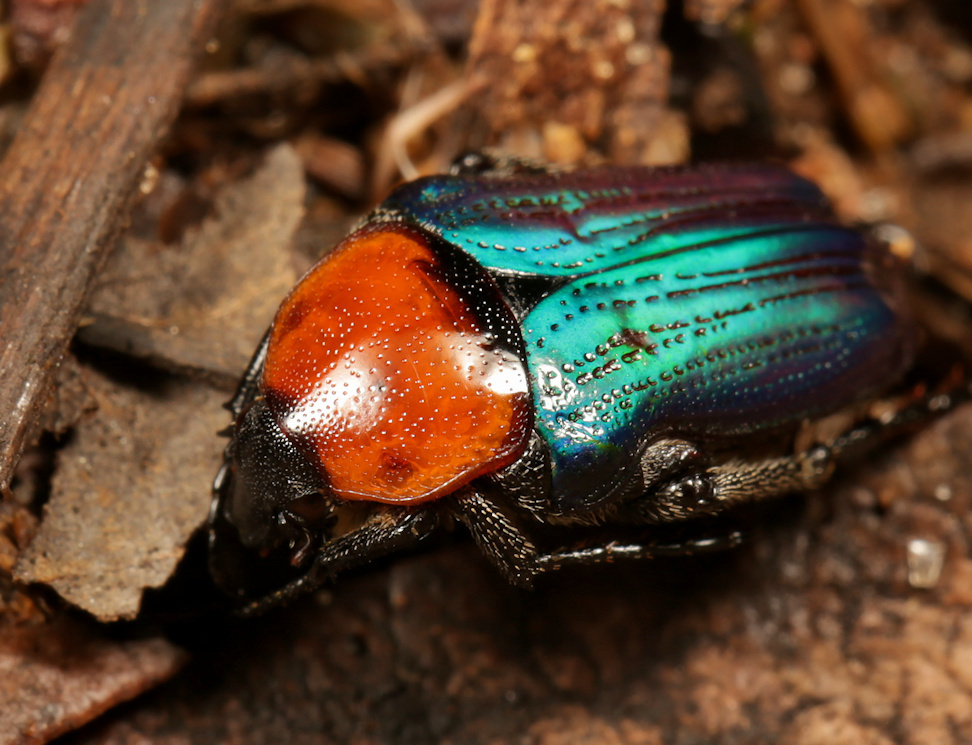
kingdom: Animalia
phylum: Arthropoda
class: Insecta
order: Coleoptera
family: Scarabaeidae
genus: Leucocelis
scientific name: Leucocelis amethystina
